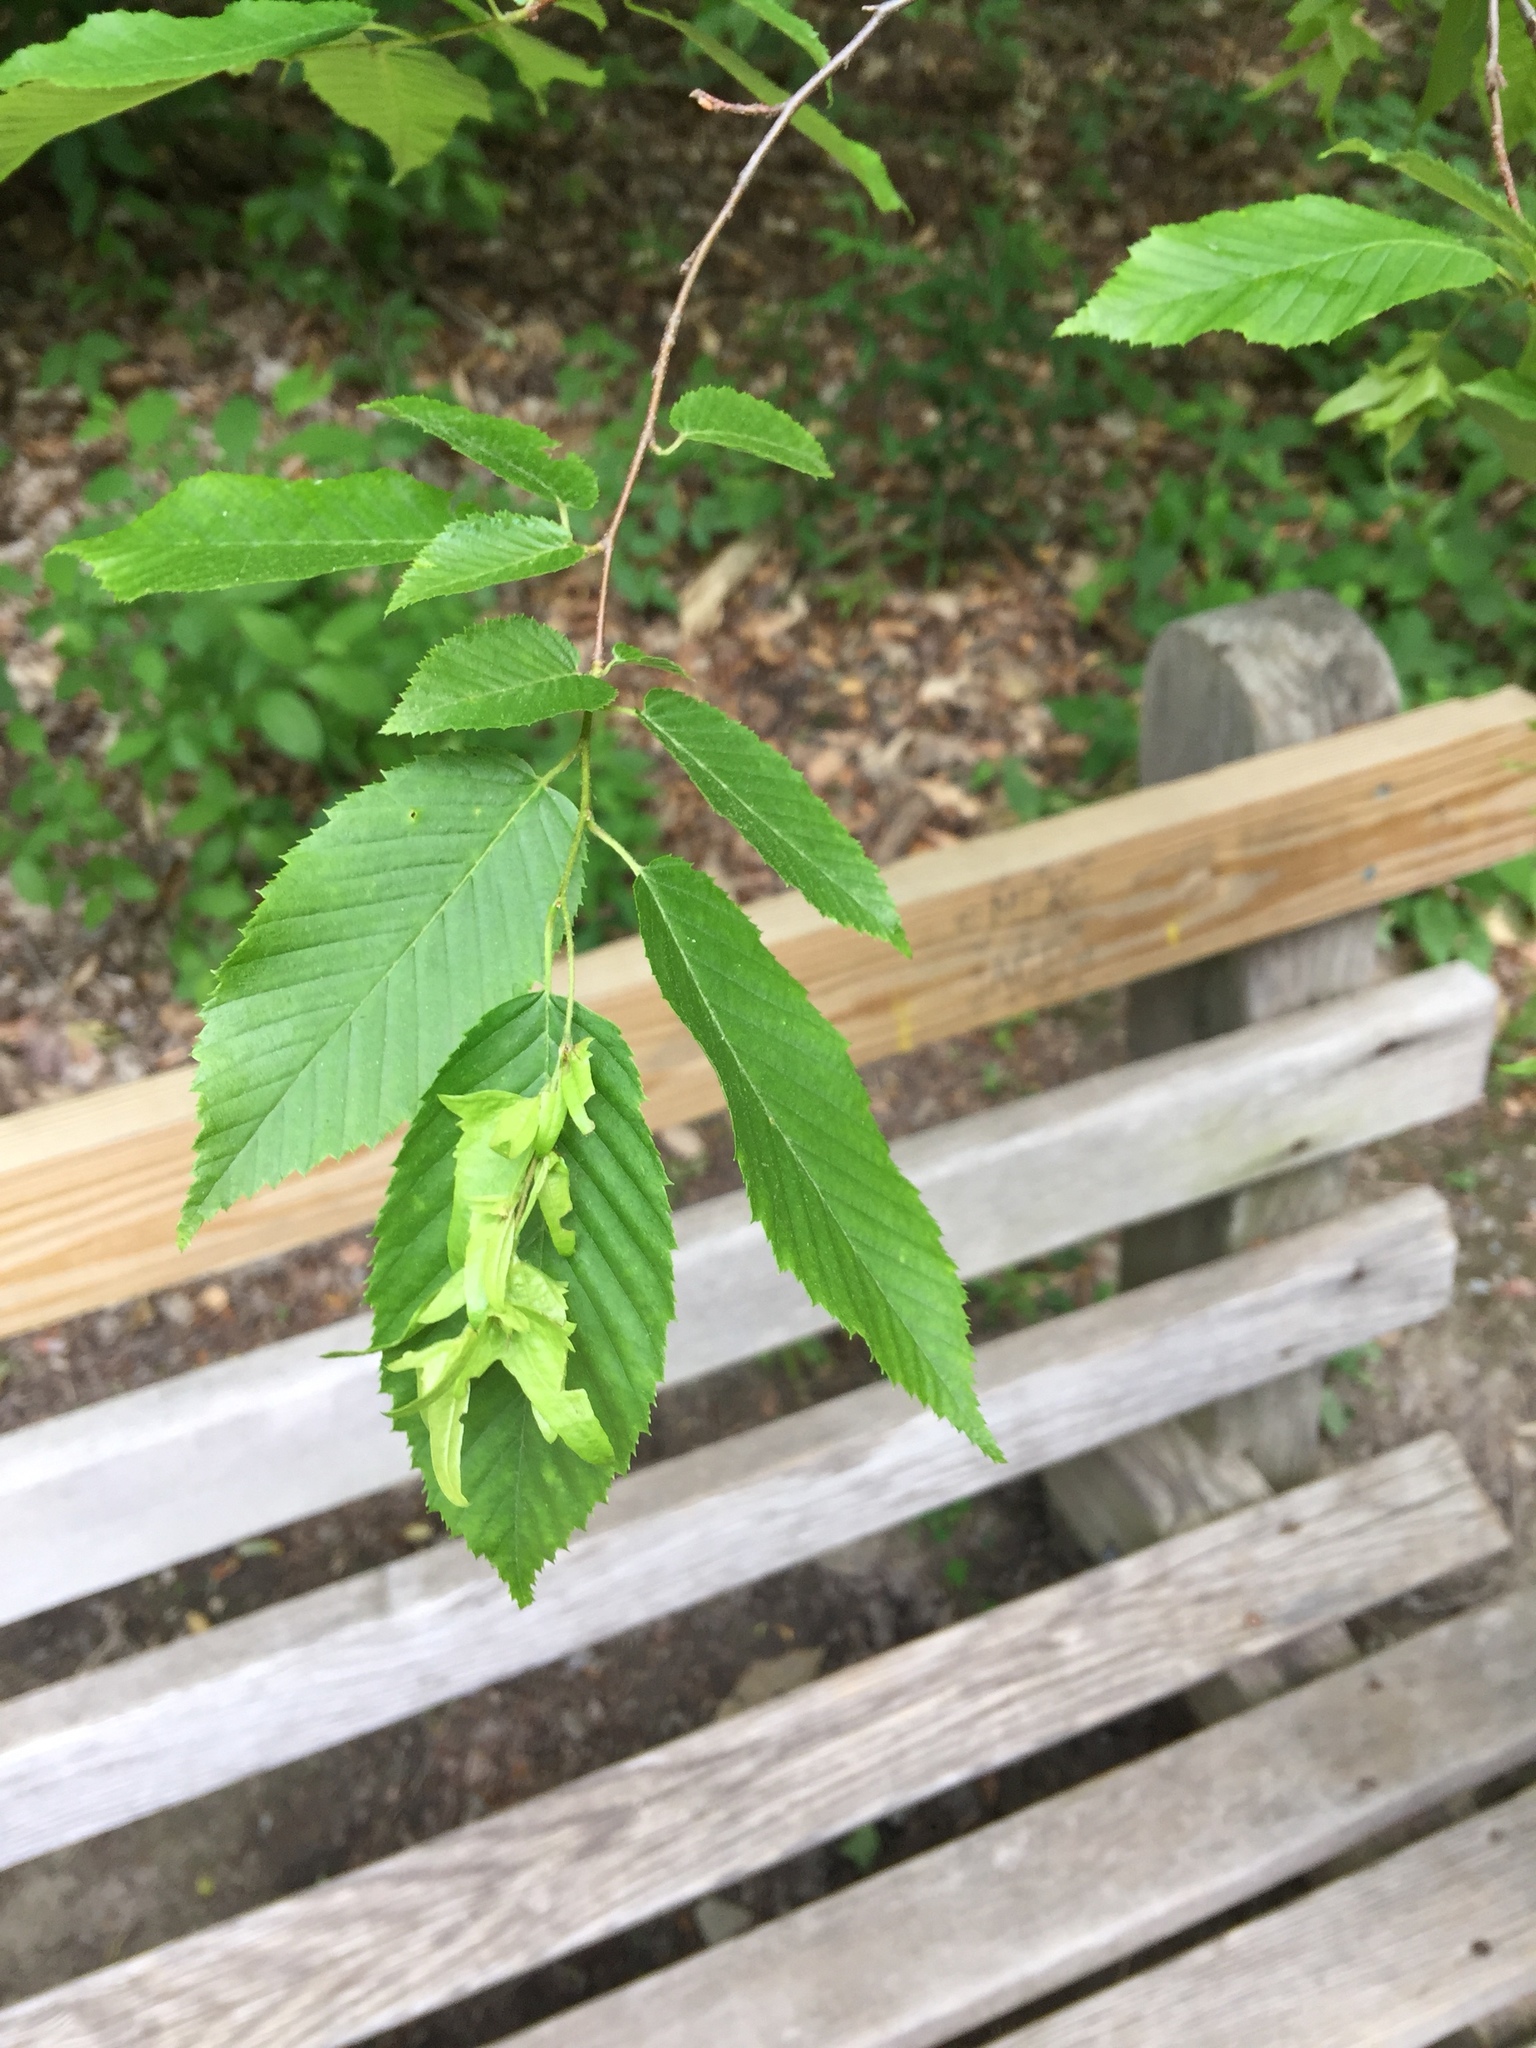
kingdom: Plantae
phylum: Tracheophyta
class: Magnoliopsida
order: Fagales
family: Betulaceae
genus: Carpinus
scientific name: Carpinus caroliniana
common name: American hornbeam
